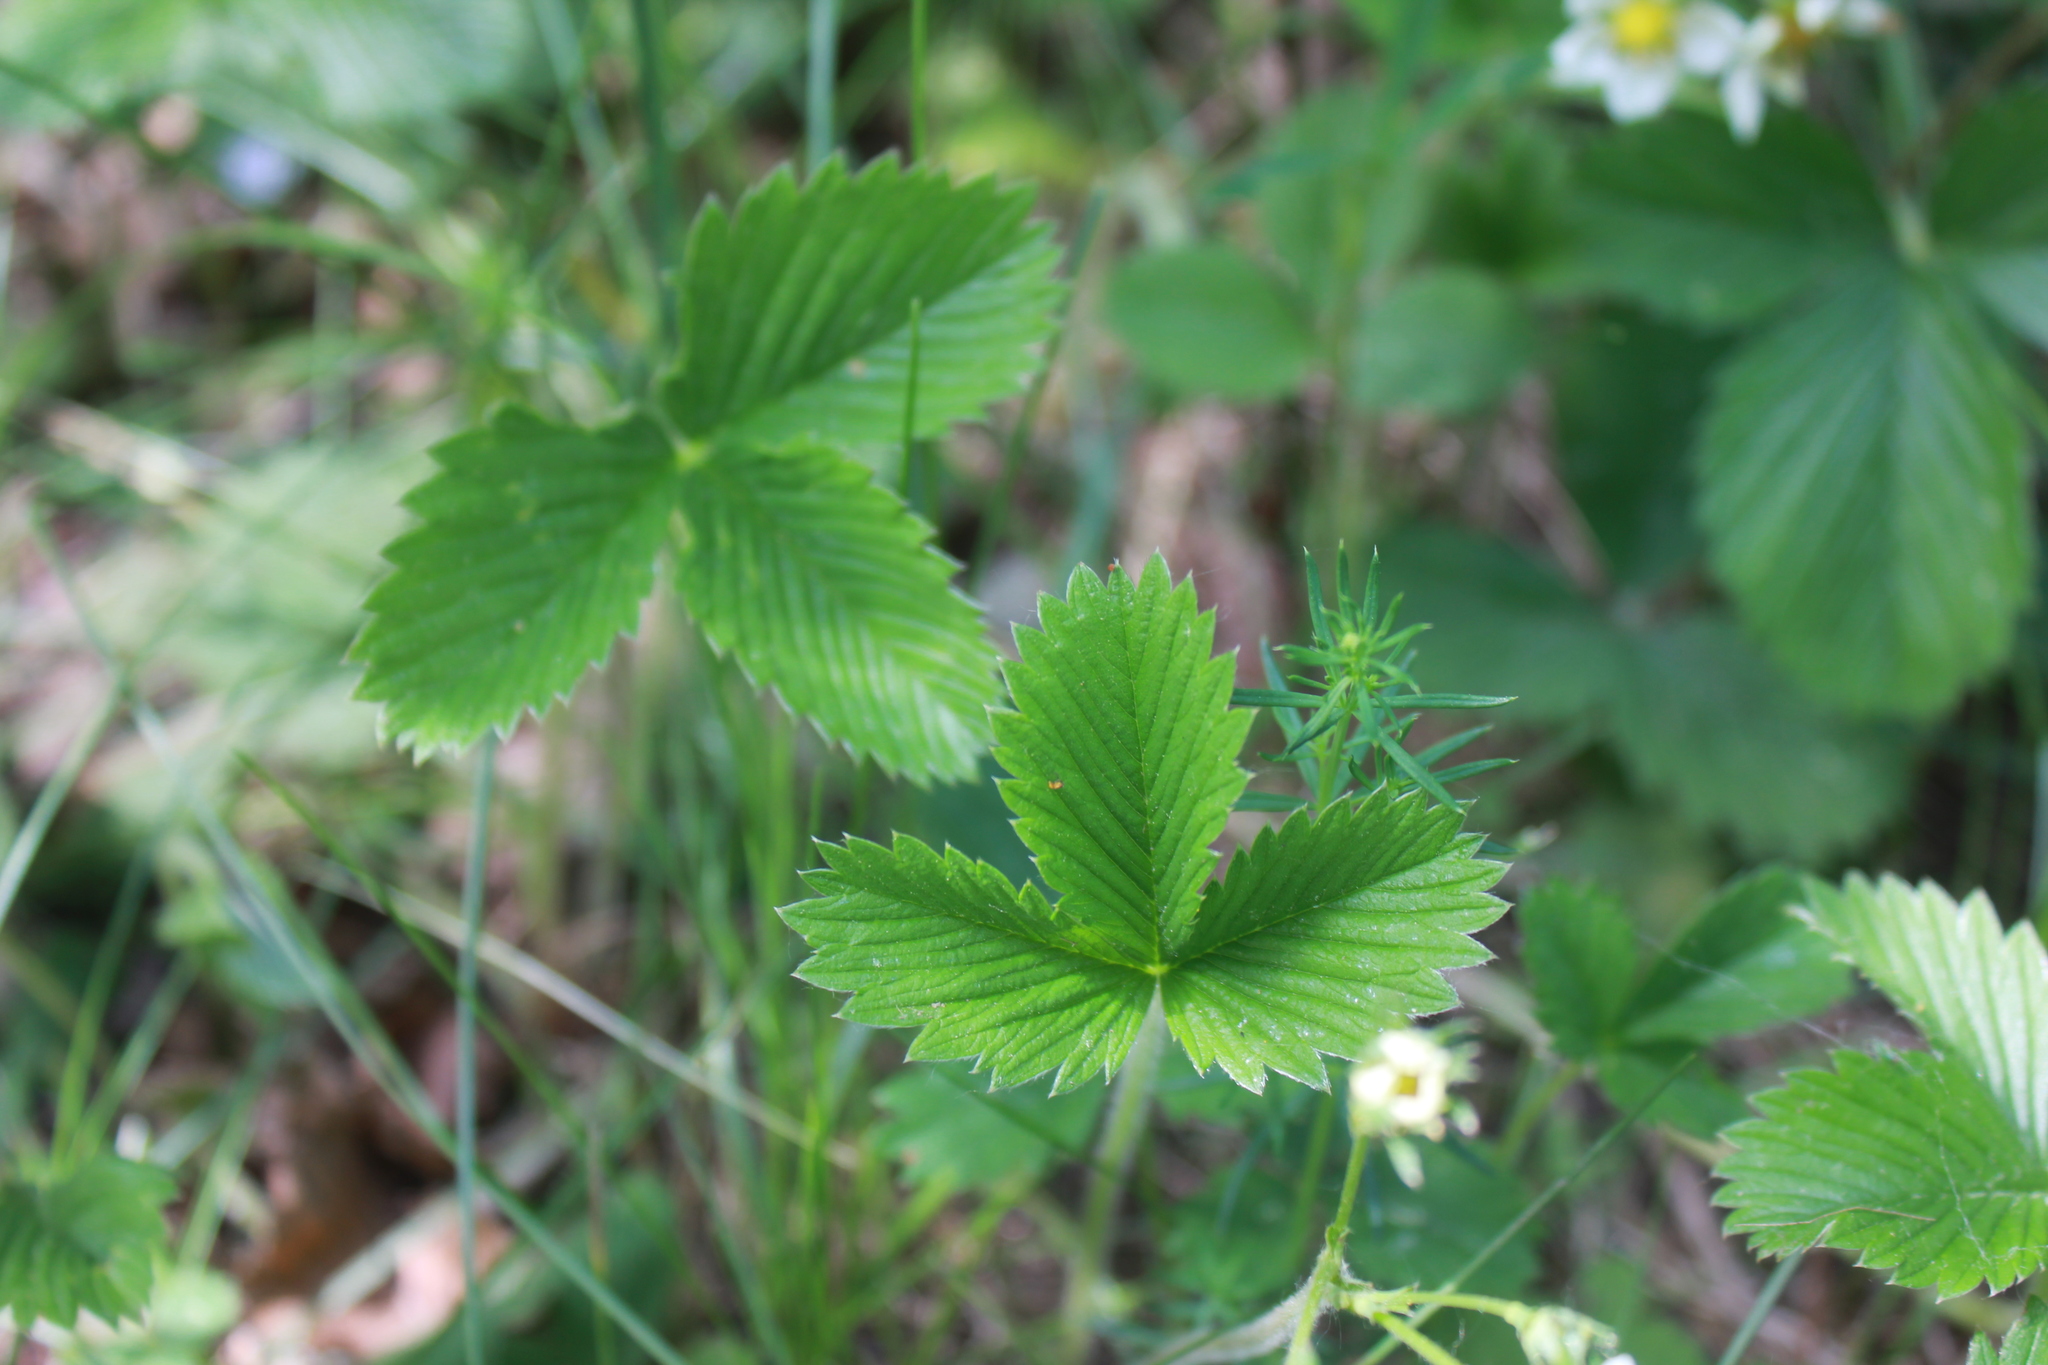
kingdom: Plantae
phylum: Tracheophyta
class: Magnoliopsida
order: Rosales
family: Rosaceae
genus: Fragaria
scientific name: Fragaria viridis
